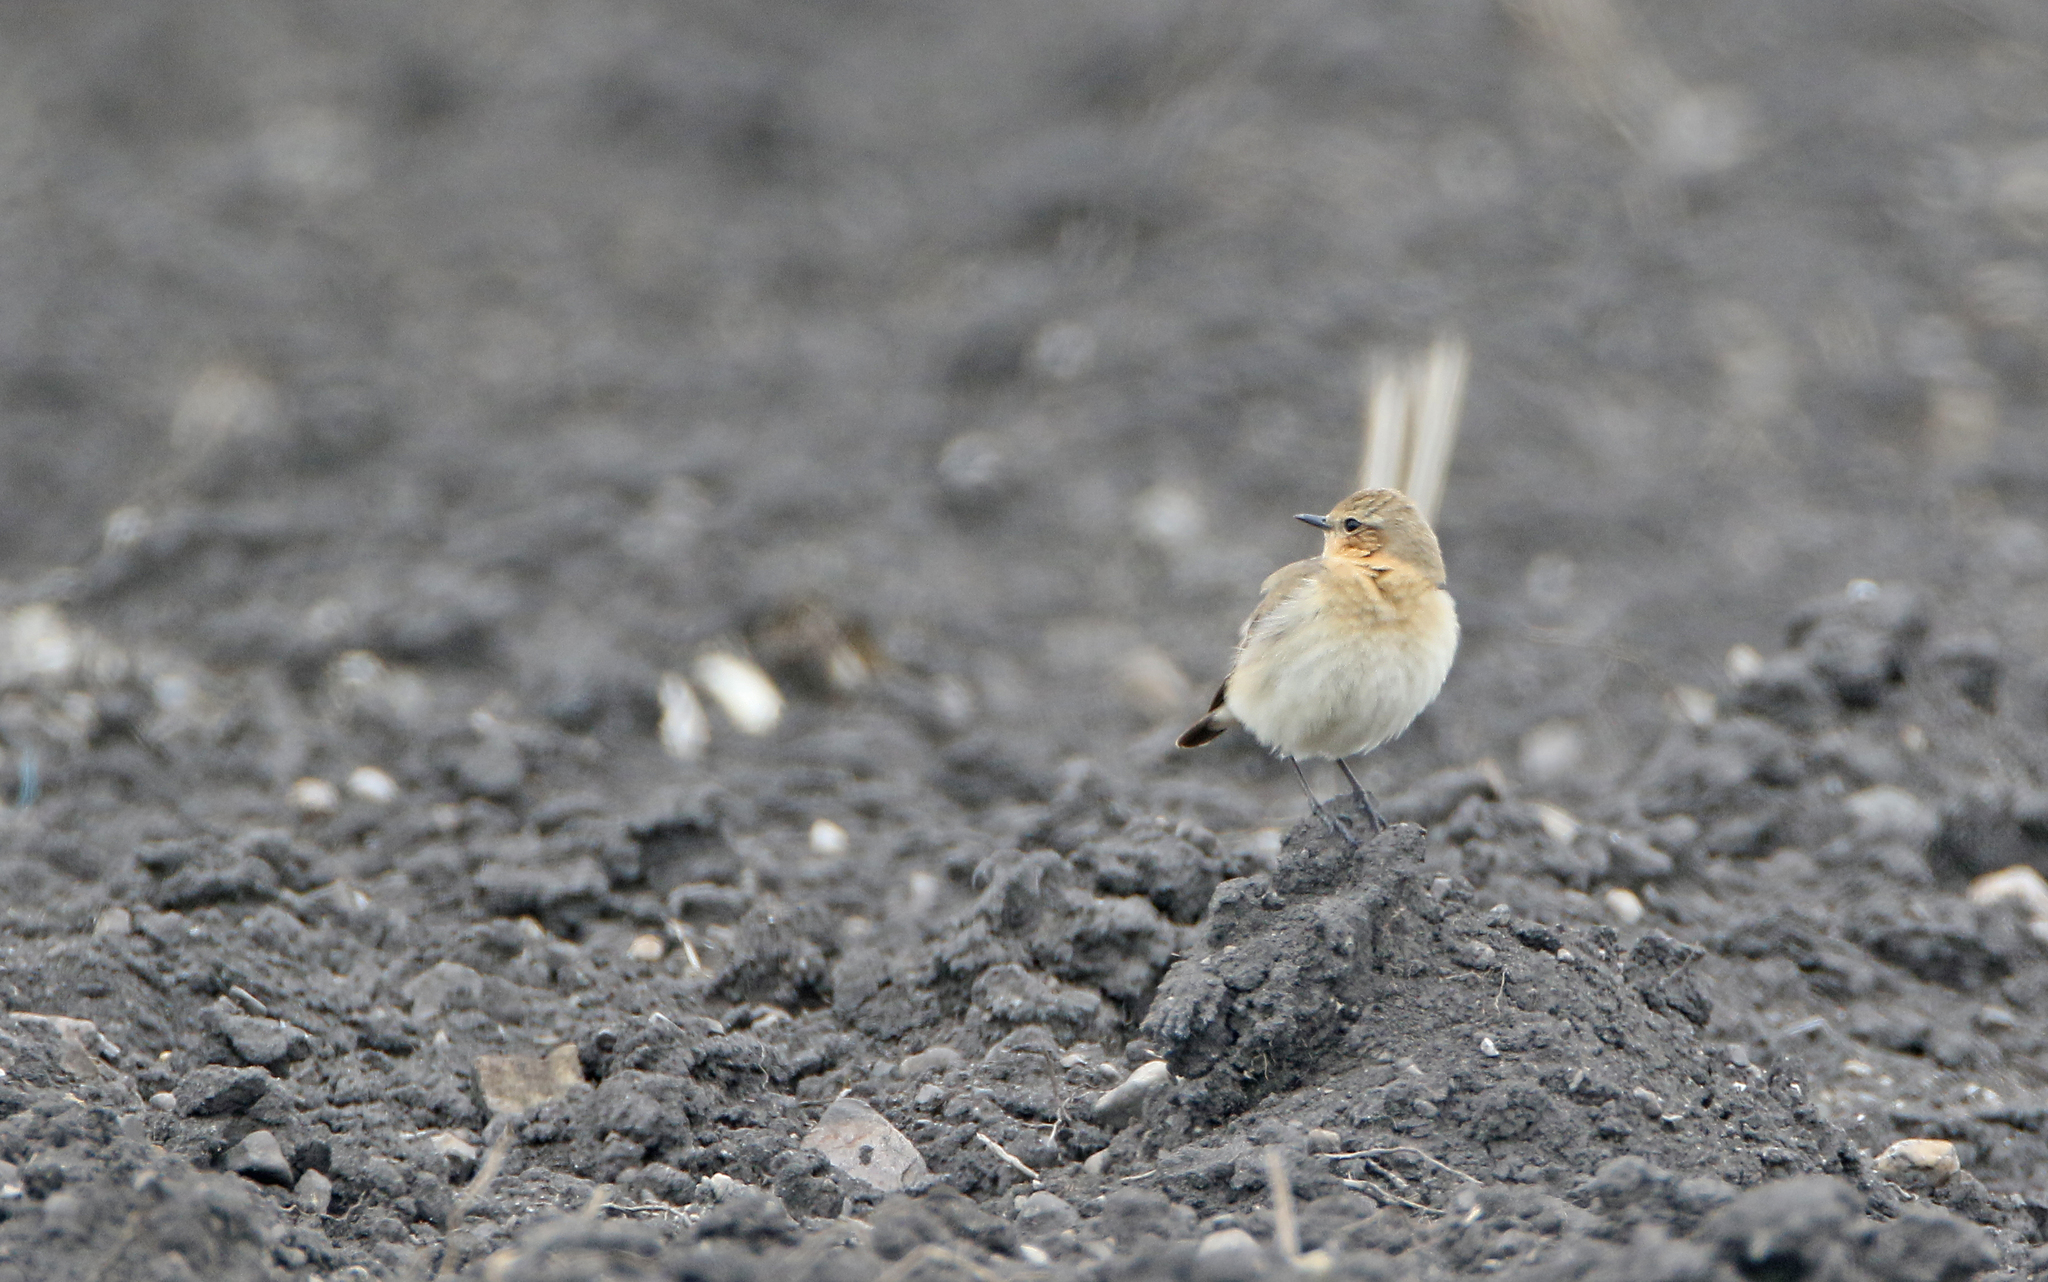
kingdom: Animalia
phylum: Chordata
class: Aves
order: Passeriformes
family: Muscicapidae
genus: Oenanthe
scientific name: Oenanthe oenanthe
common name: Northern wheatear
